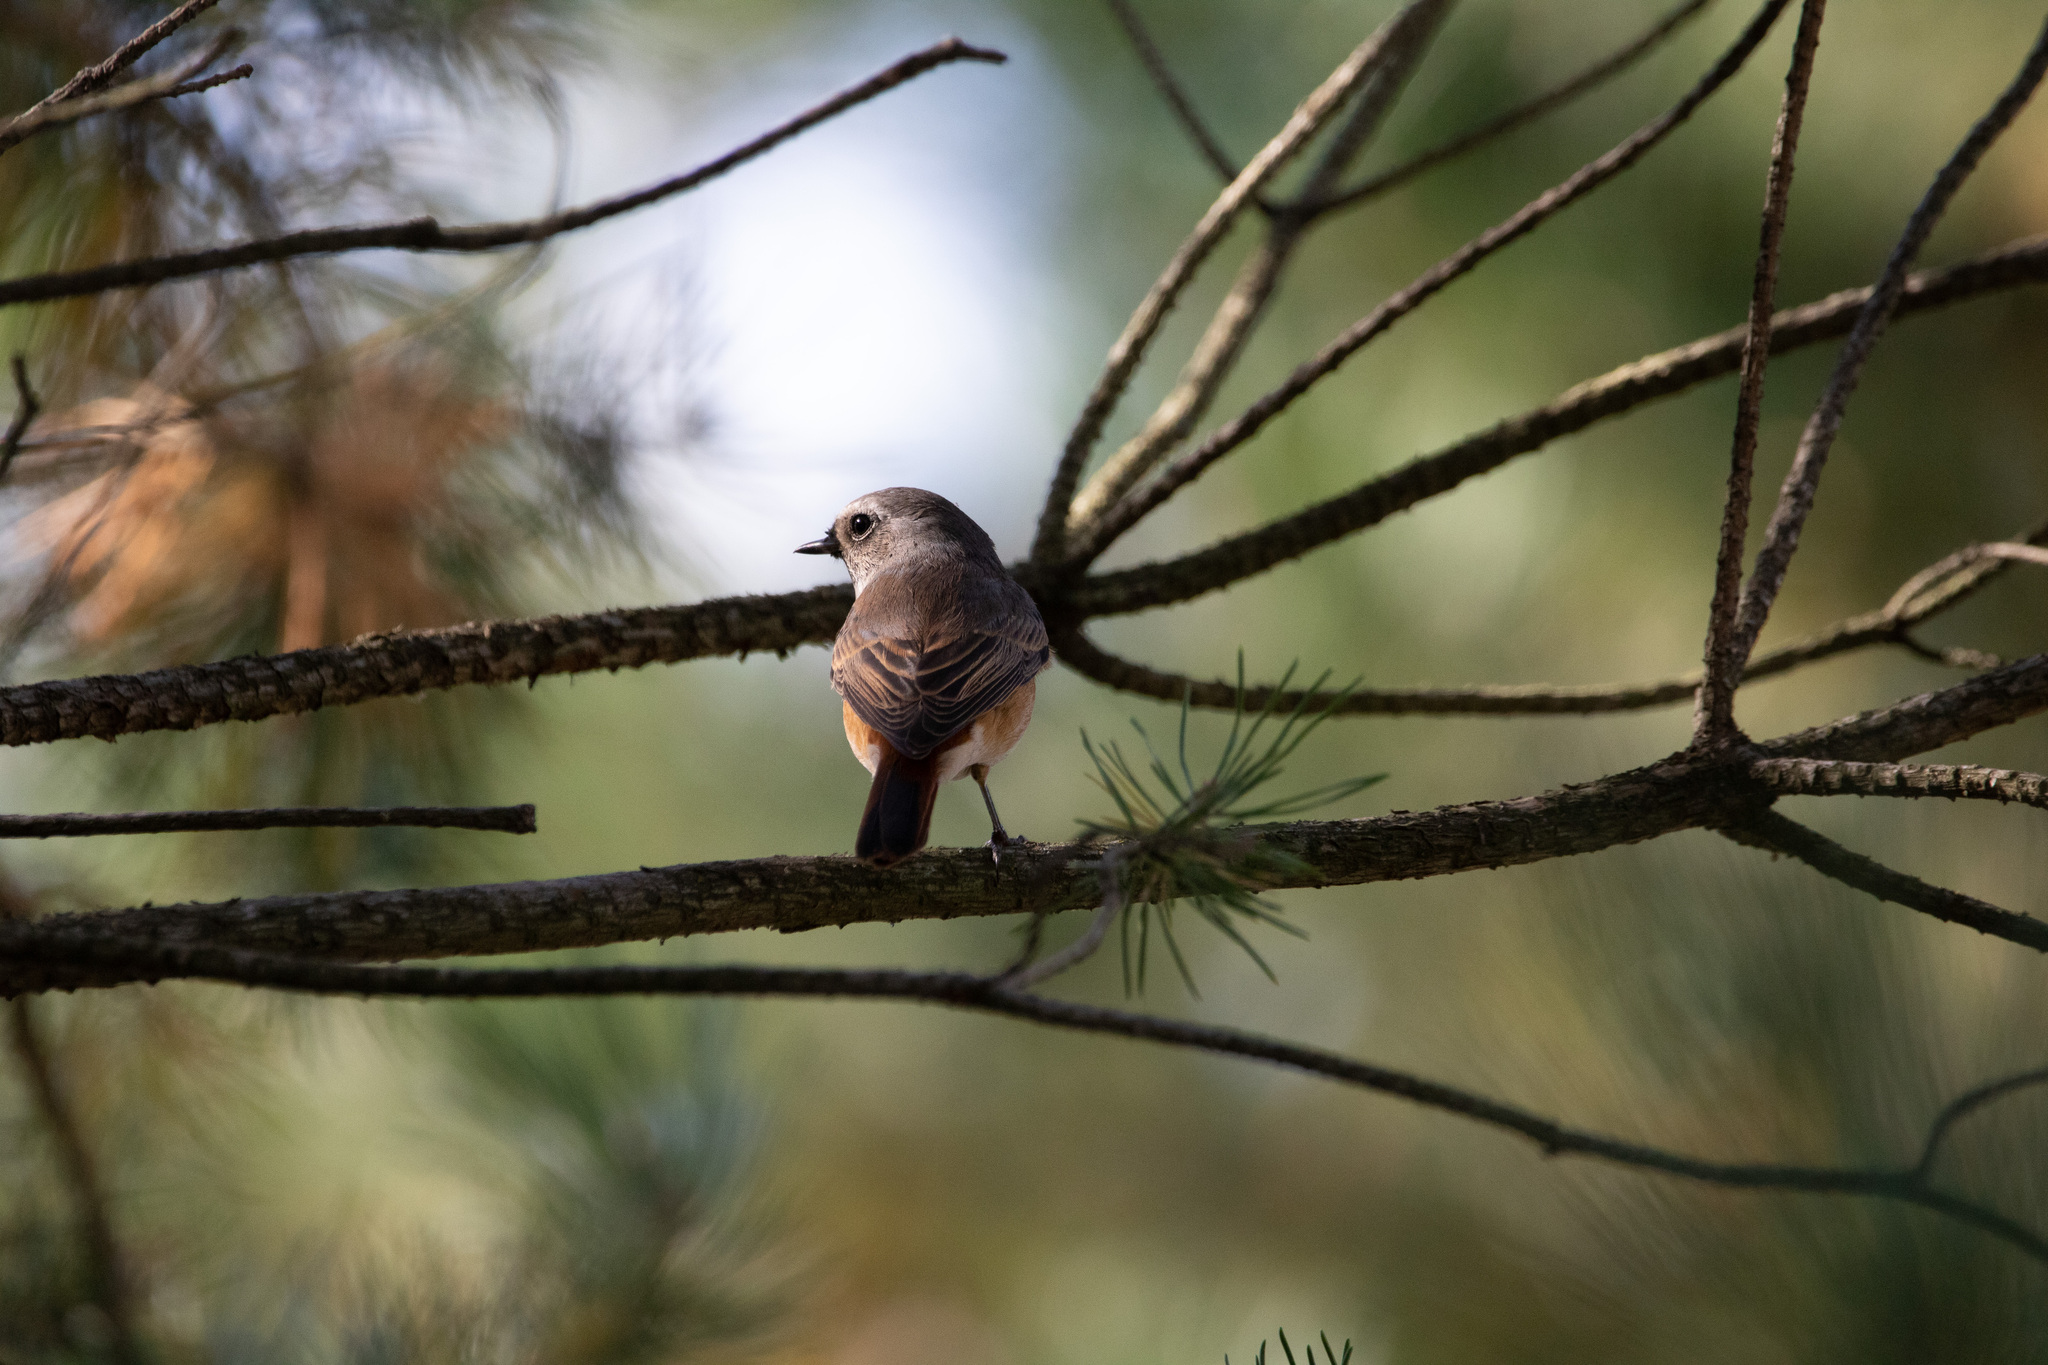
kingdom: Animalia
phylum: Chordata
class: Aves
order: Passeriformes
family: Muscicapidae
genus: Phoenicurus
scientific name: Phoenicurus phoenicurus
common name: Common redstart
